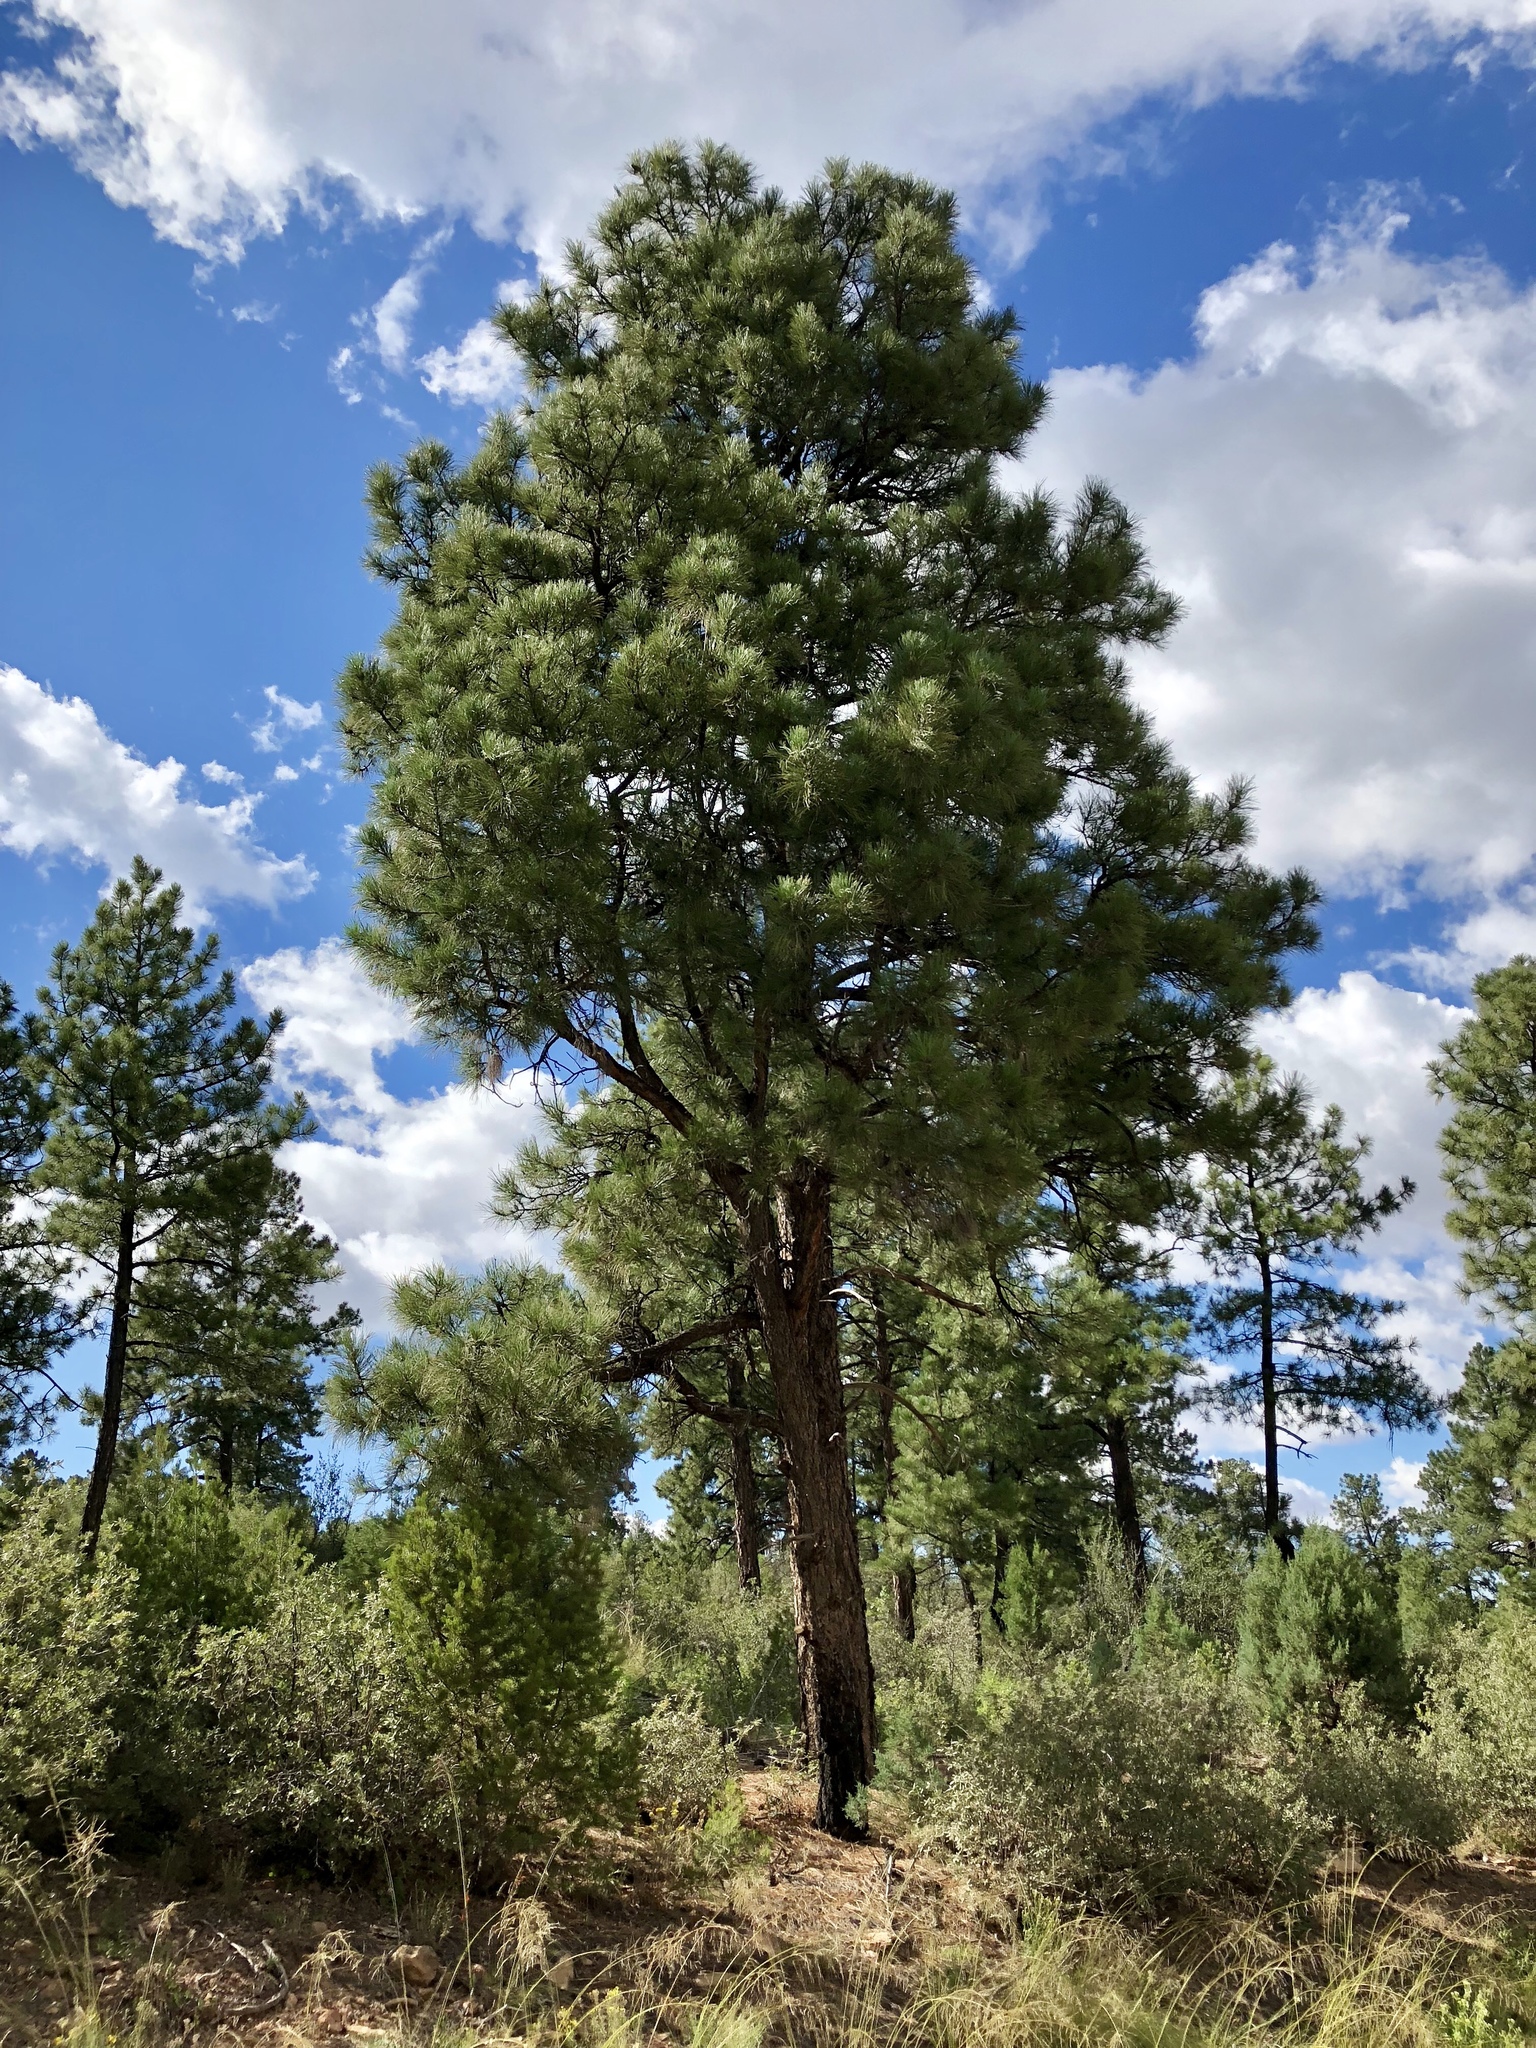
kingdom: Plantae
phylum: Tracheophyta
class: Pinopsida
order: Pinales
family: Pinaceae
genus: Pinus
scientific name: Pinus ponderosa
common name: Western yellow-pine
